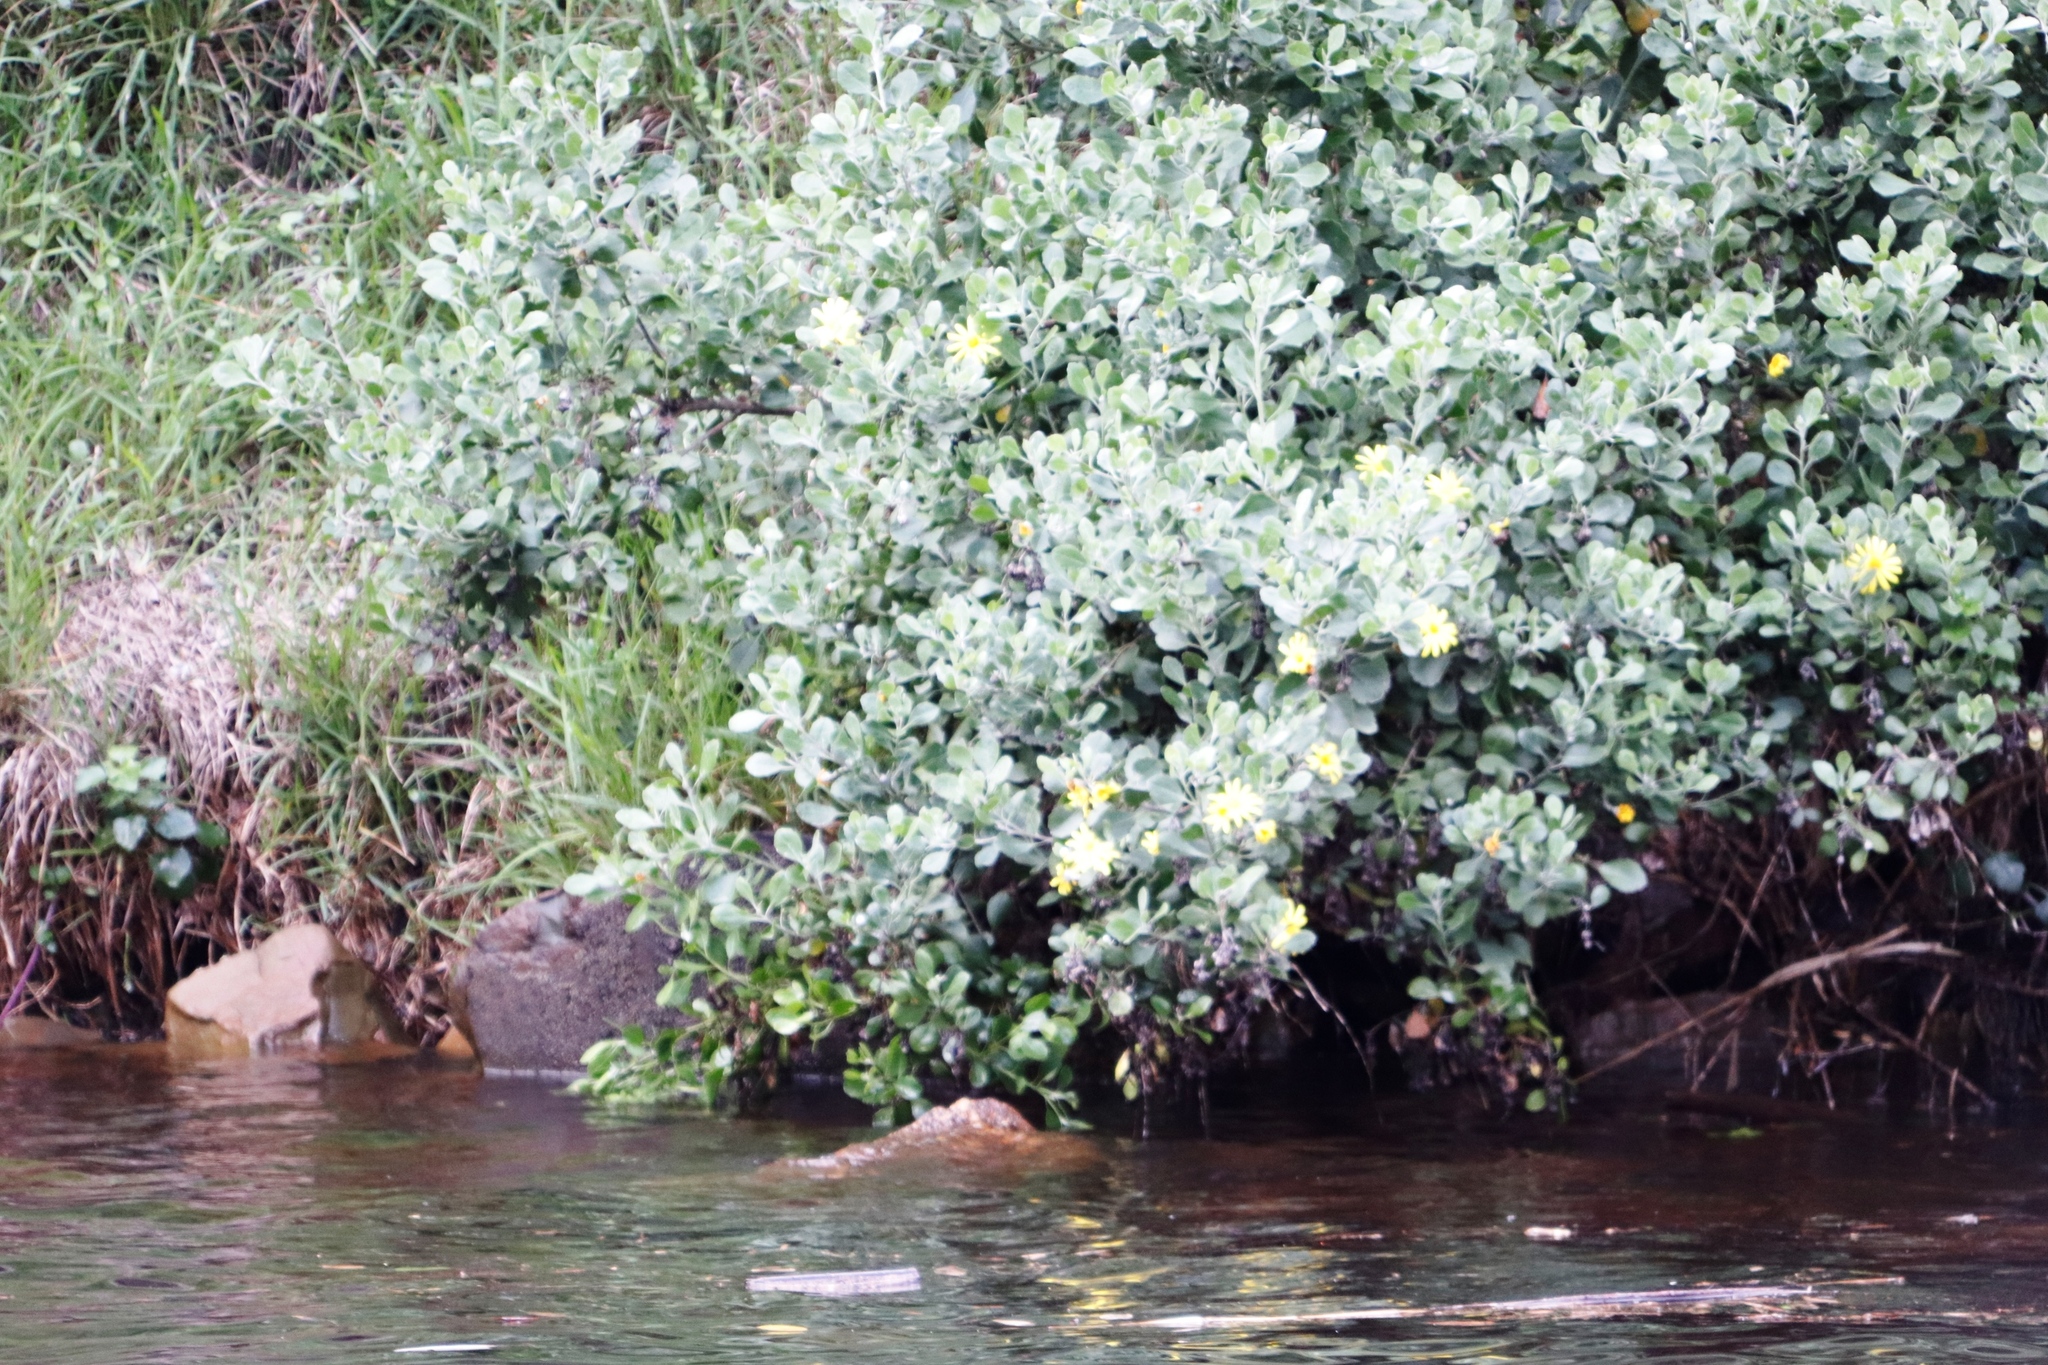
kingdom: Plantae
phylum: Tracheophyta
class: Magnoliopsida
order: Asterales
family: Asteraceae
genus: Osteospermum
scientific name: Osteospermum moniliferum
